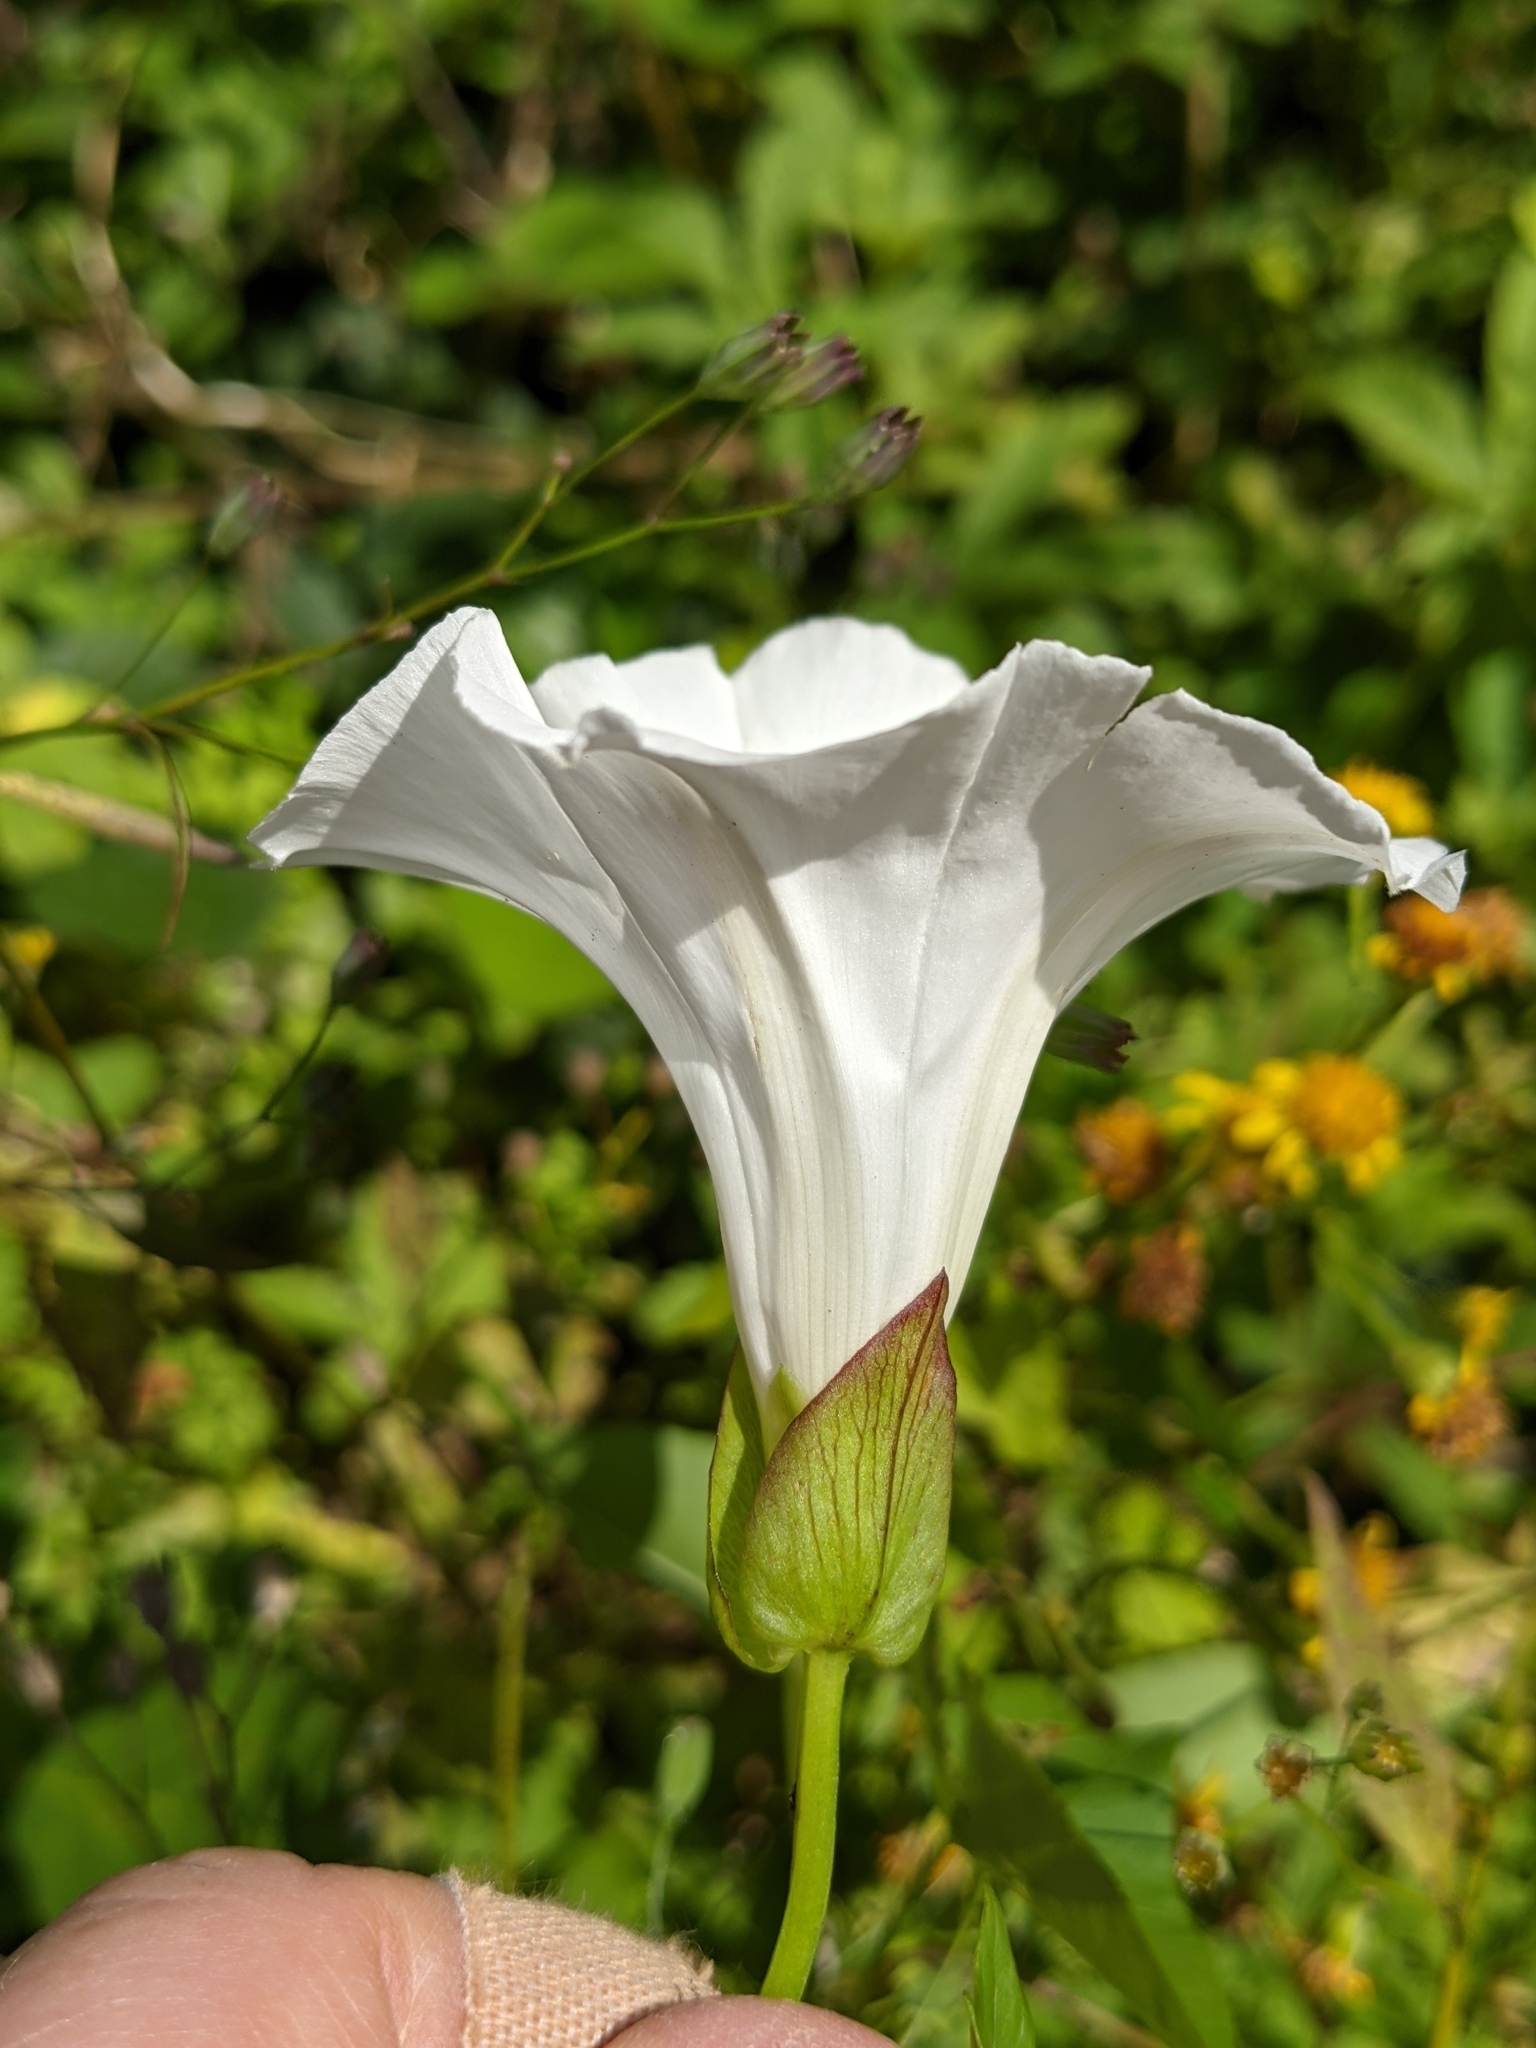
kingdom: Plantae
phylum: Tracheophyta
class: Magnoliopsida
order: Solanales
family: Convolvulaceae
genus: Calystegia
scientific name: Calystegia sepium
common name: Hedge bindweed
